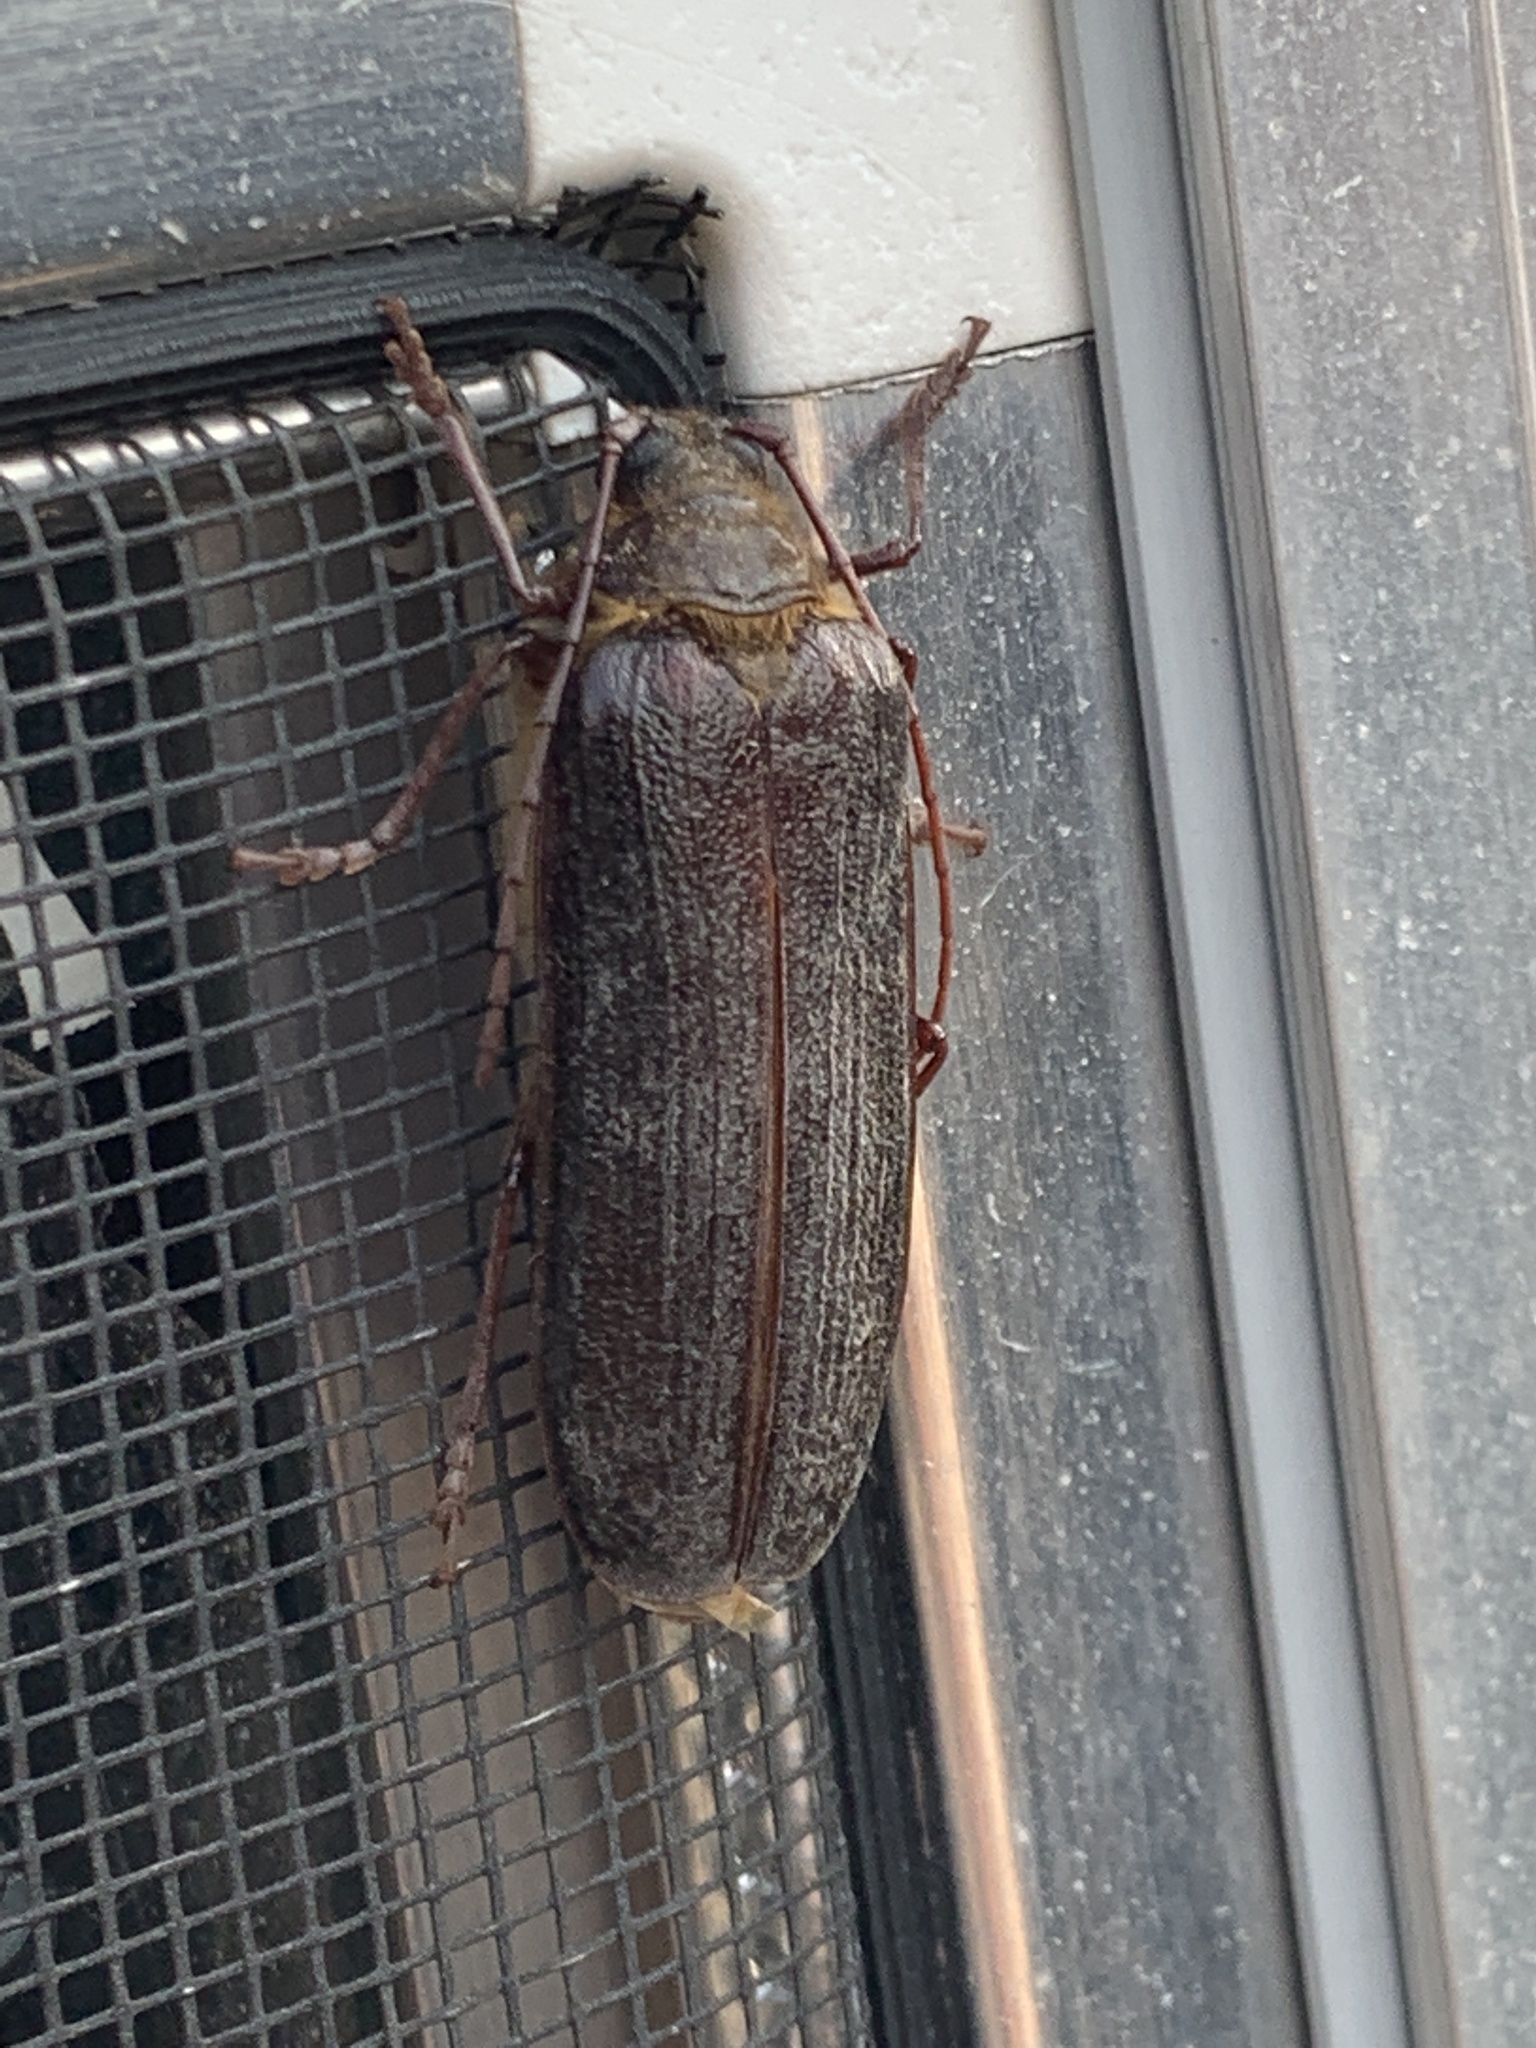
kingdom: Animalia
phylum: Arthropoda
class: Insecta
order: Coleoptera
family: Cerambycidae
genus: Tragosoma
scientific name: Tragosoma harrisii
